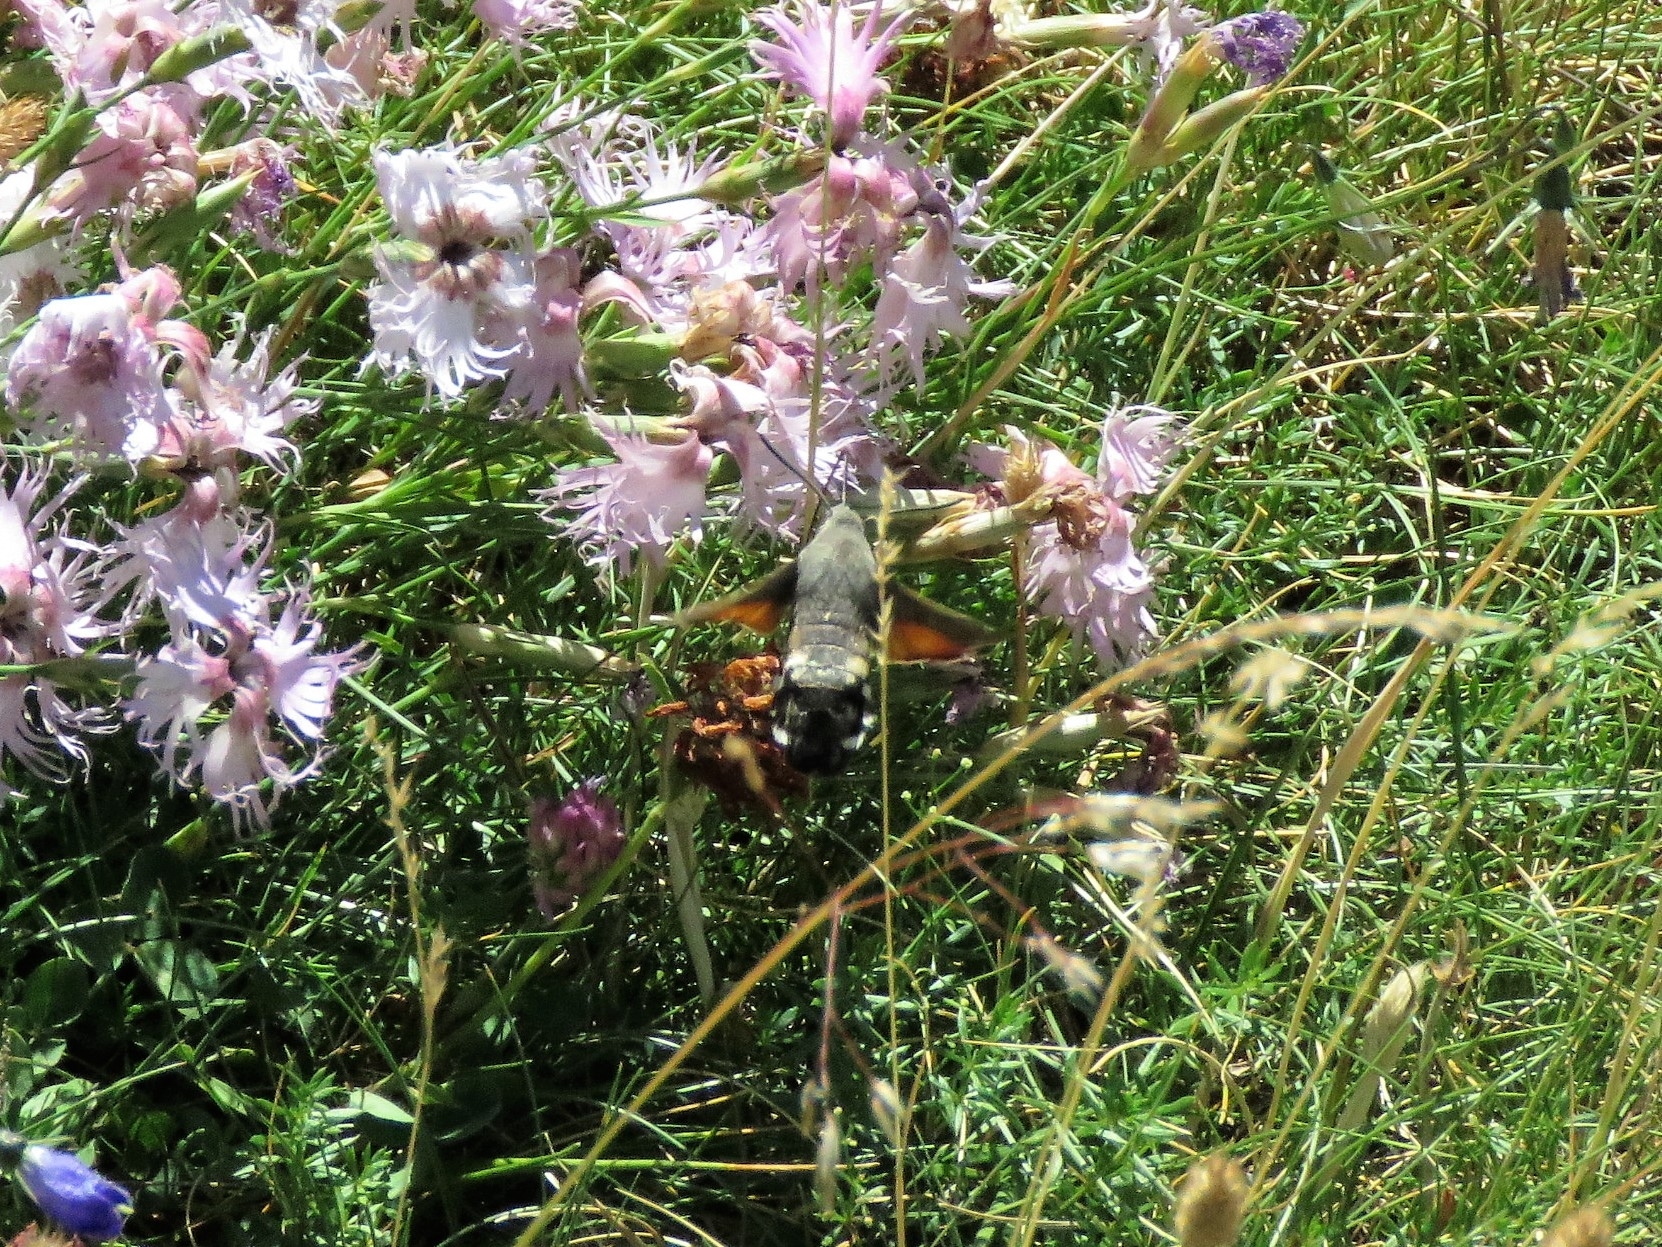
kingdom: Animalia
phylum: Arthropoda
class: Insecta
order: Lepidoptera
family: Sphingidae
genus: Macroglossum
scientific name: Macroglossum stellatarum
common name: Humming-bird hawk-moth
